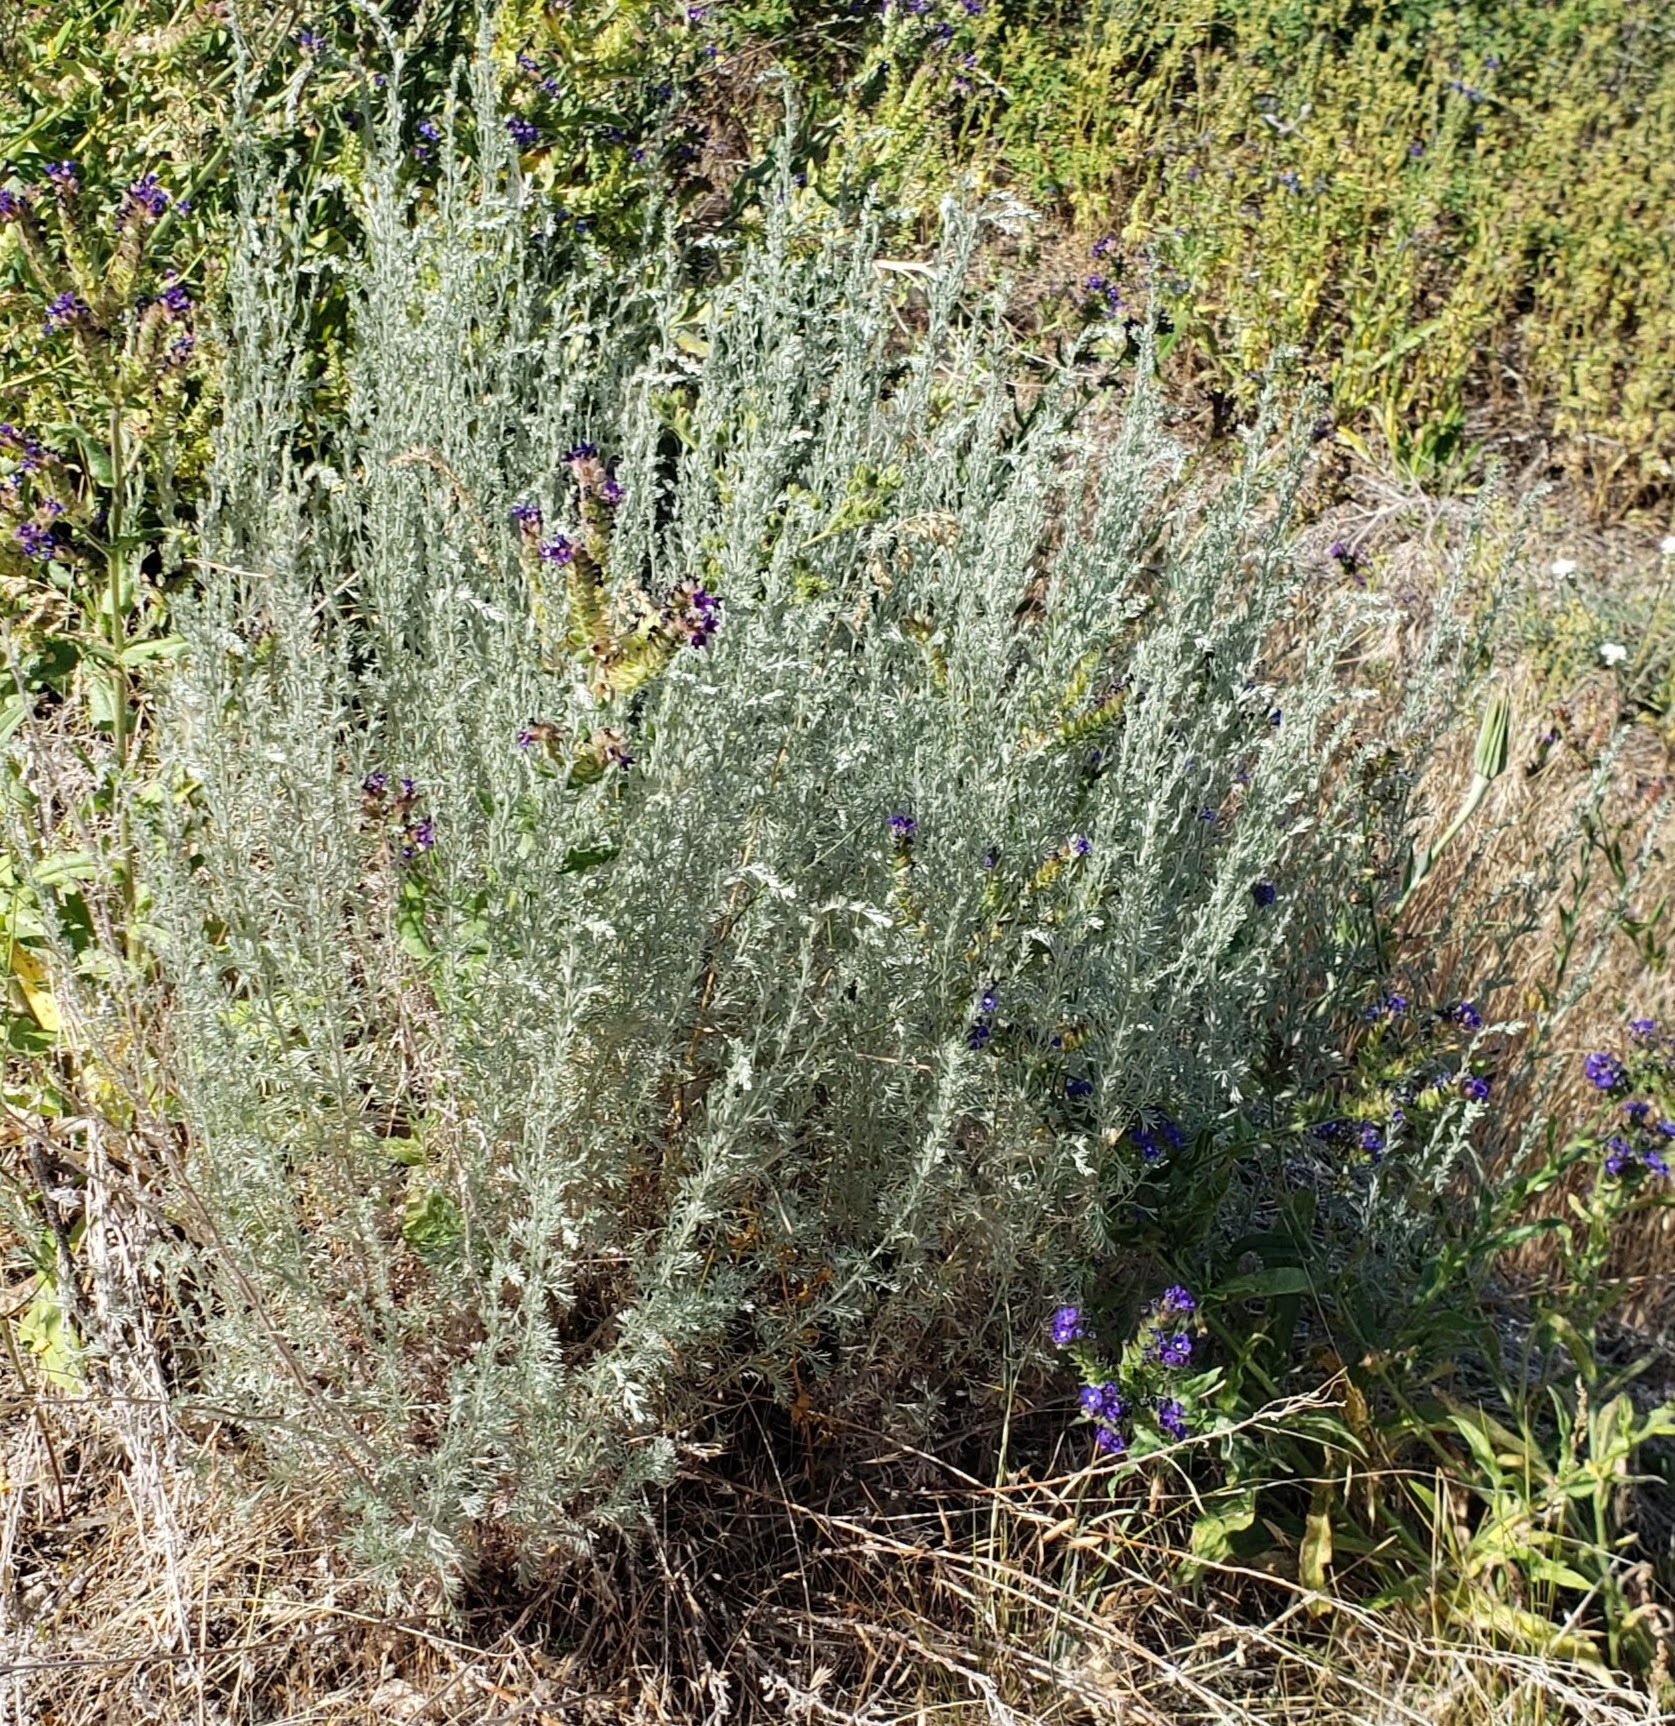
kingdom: Plantae
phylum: Tracheophyta
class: Magnoliopsida
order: Asterales
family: Asteraceae
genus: Artemisia
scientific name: Artemisia frigida
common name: Prairie sagewort
